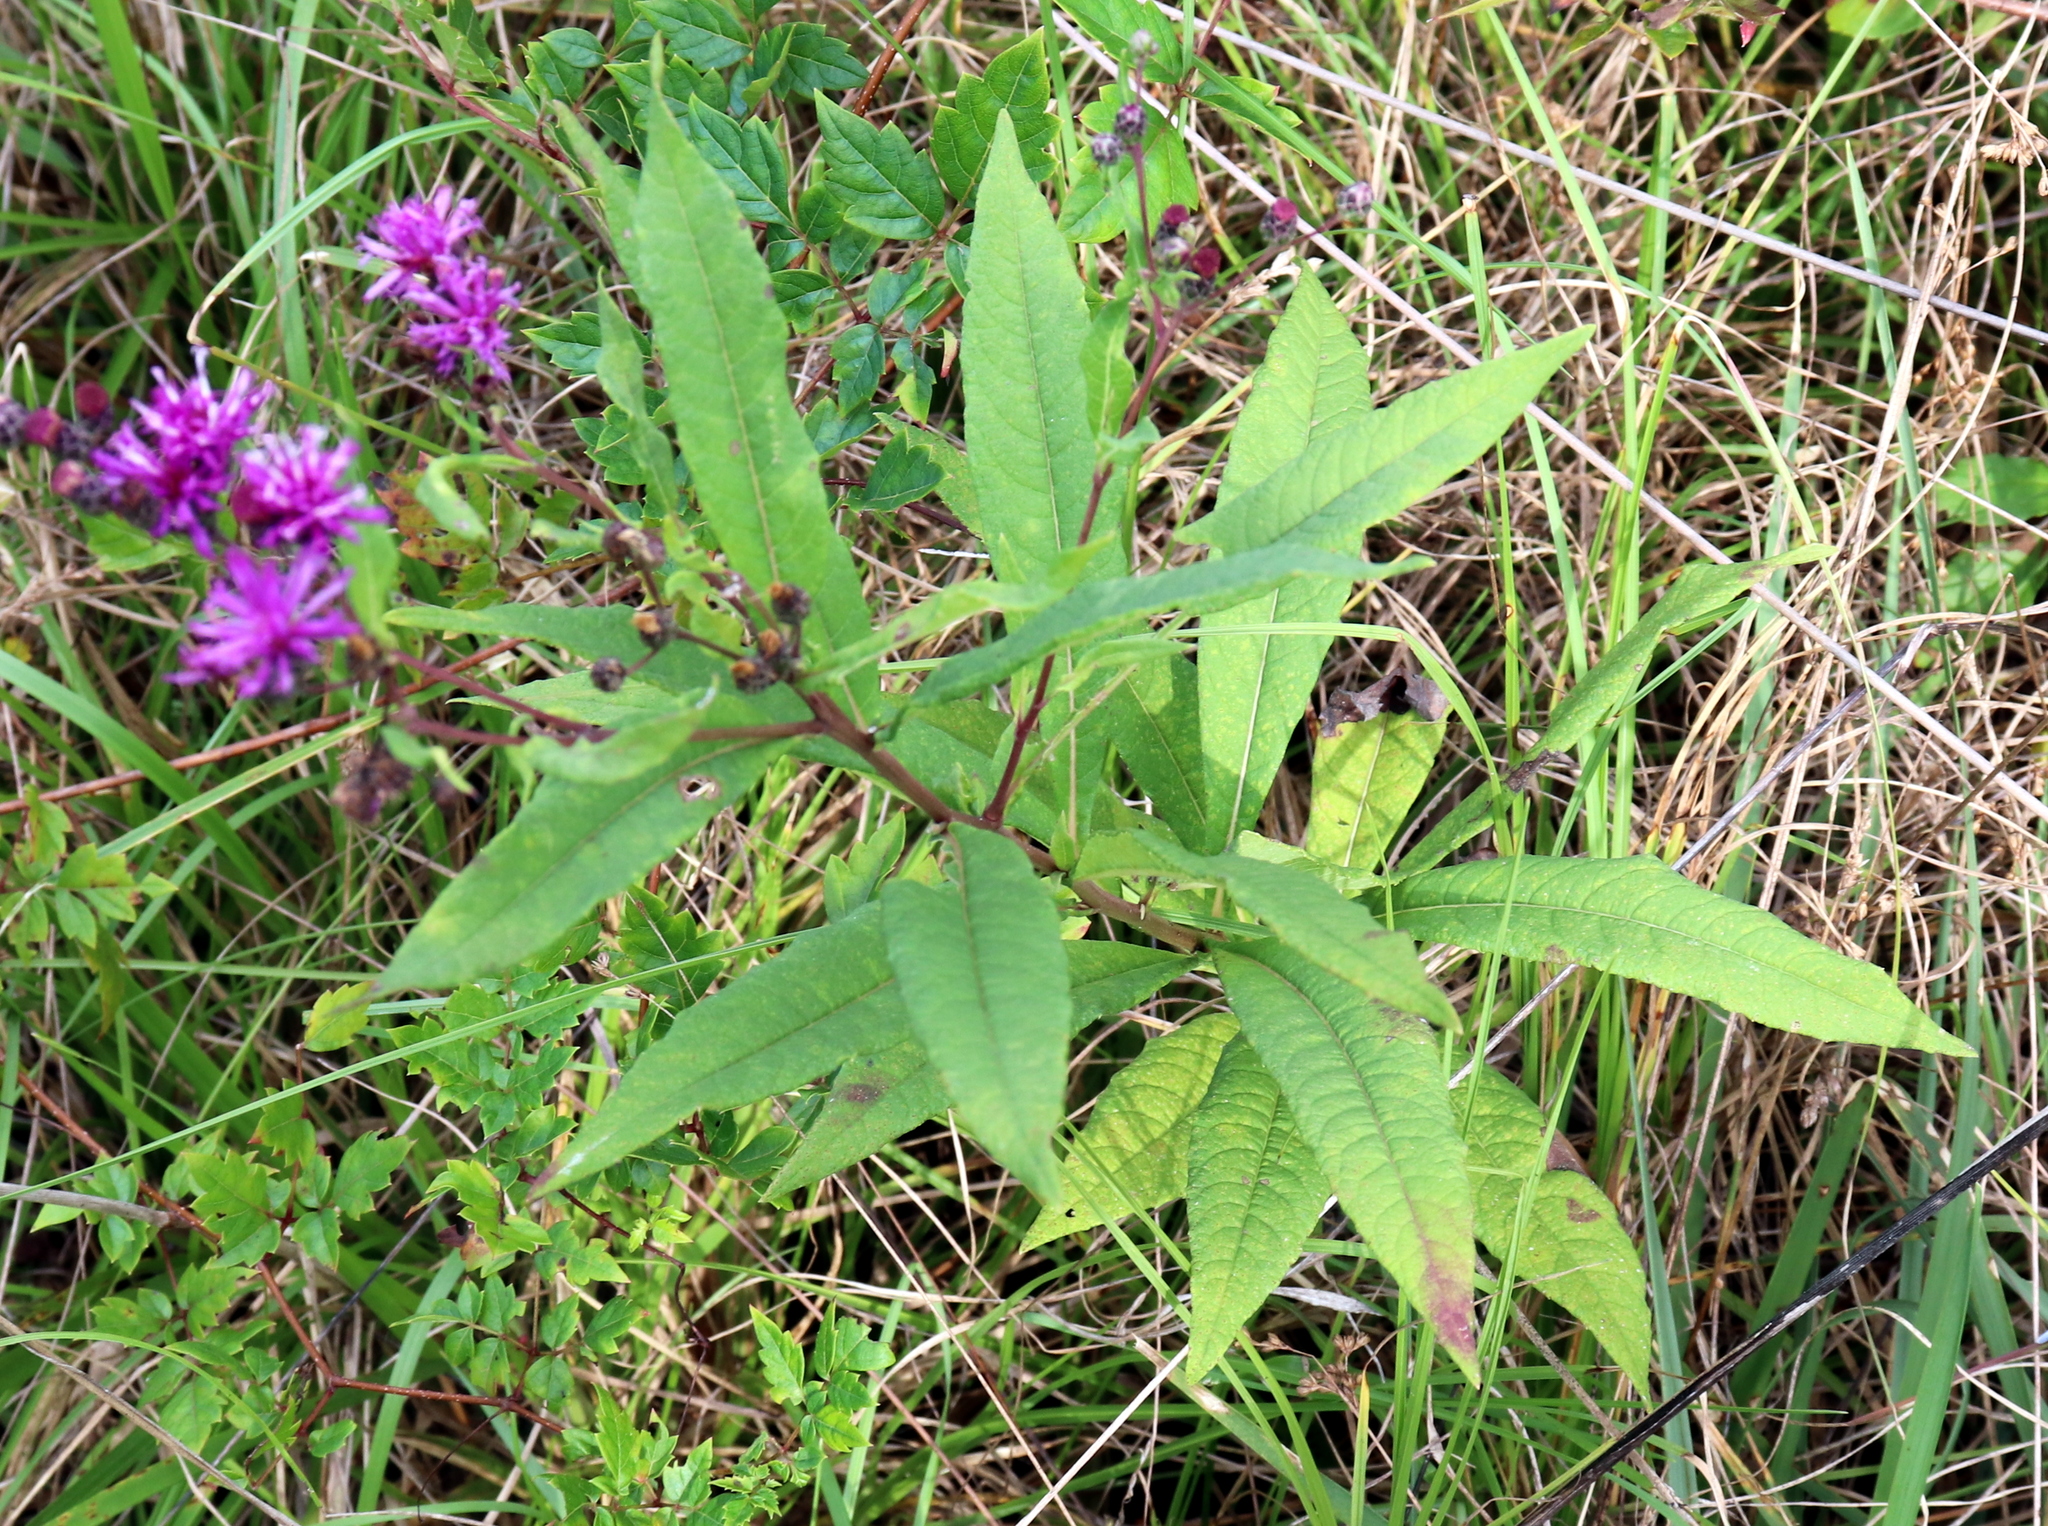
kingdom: Plantae
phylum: Tracheophyta
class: Magnoliopsida
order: Asterales
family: Asteraceae
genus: Vernonia
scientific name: Vernonia gigantea
